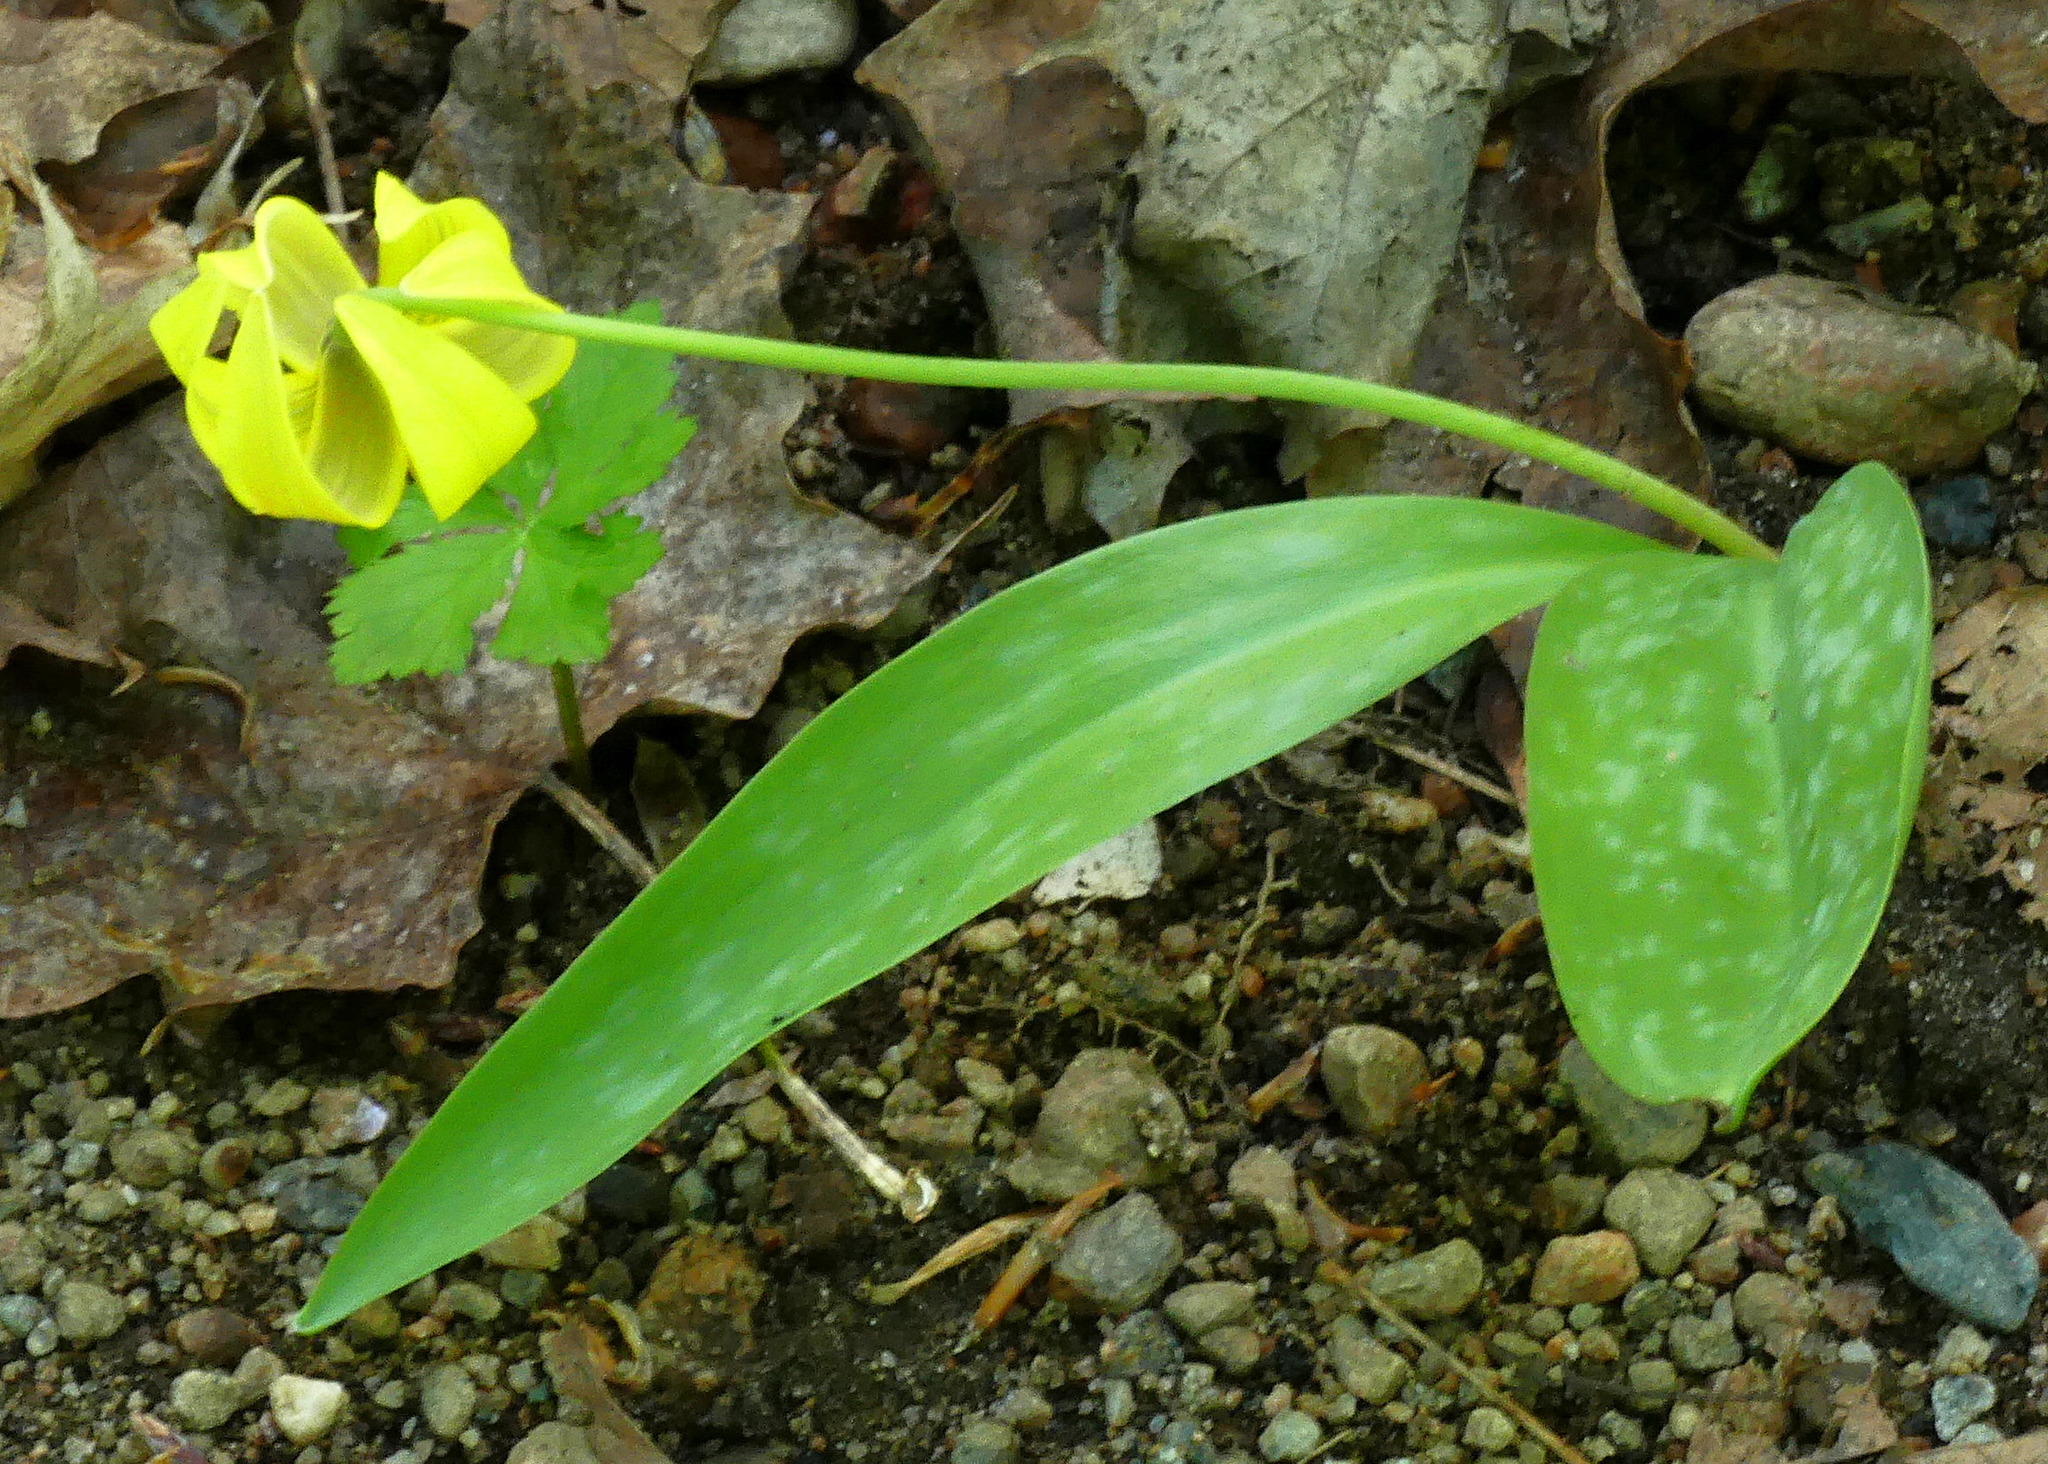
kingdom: Plantae
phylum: Tracheophyta
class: Liliopsida
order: Liliales
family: Liliaceae
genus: Erythronium
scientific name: Erythronium americanum
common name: Yellow adder's-tongue
